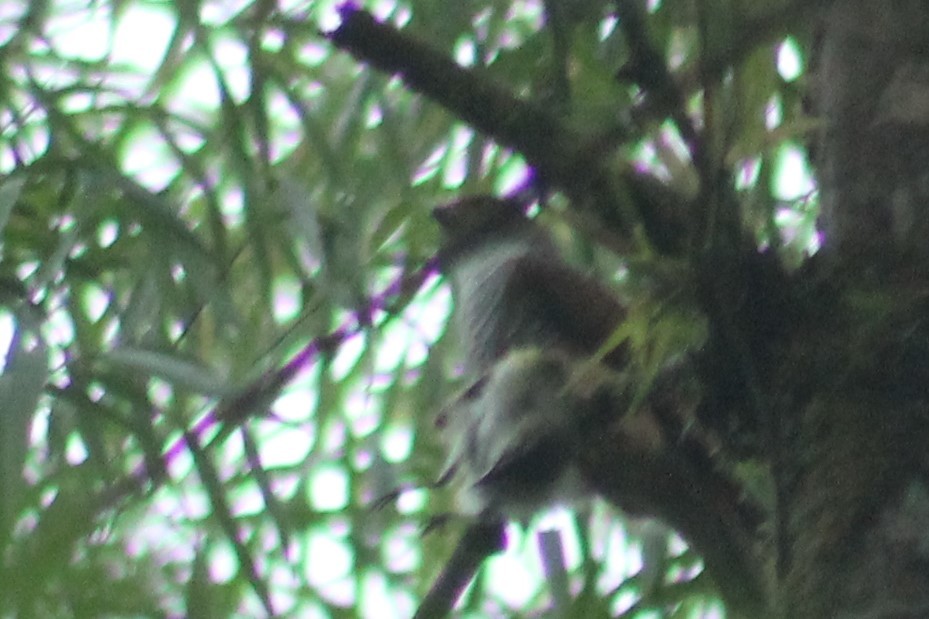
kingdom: Animalia
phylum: Chordata
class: Aves
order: Falconiformes
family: Falconidae
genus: Micrastur
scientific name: Micrastur ruficollis
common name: Barred forest-falcon
